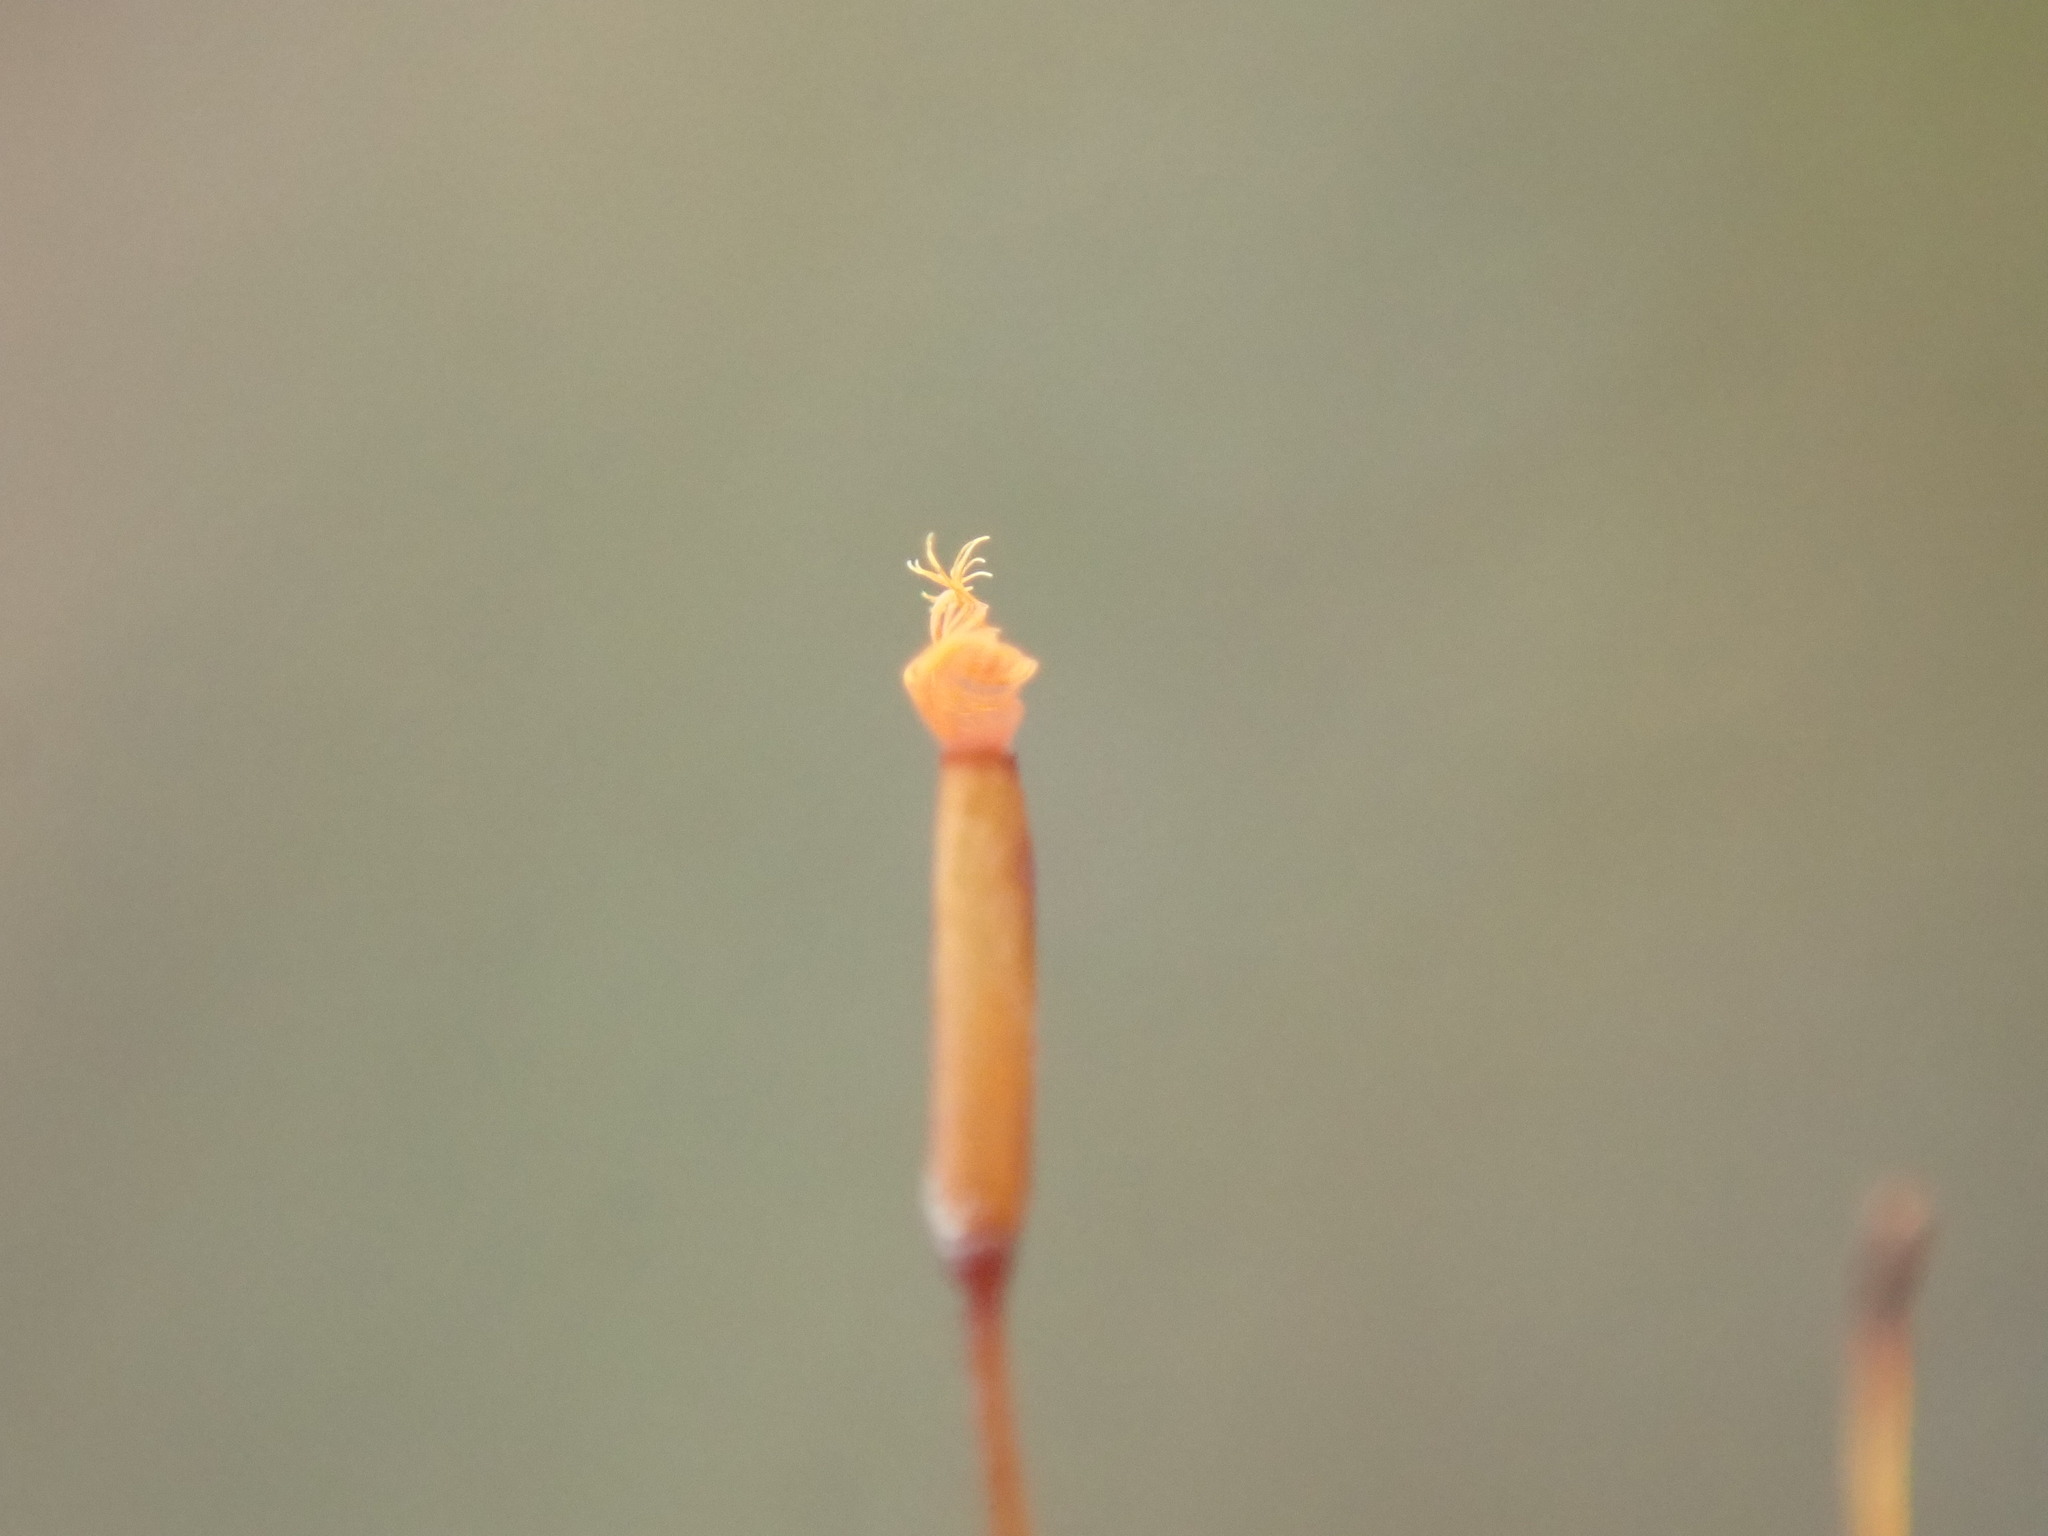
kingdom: Plantae
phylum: Bryophyta
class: Bryopsida
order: Pottiales
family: Pottiaceae
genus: Tortula
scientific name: Tortula bolanderi
